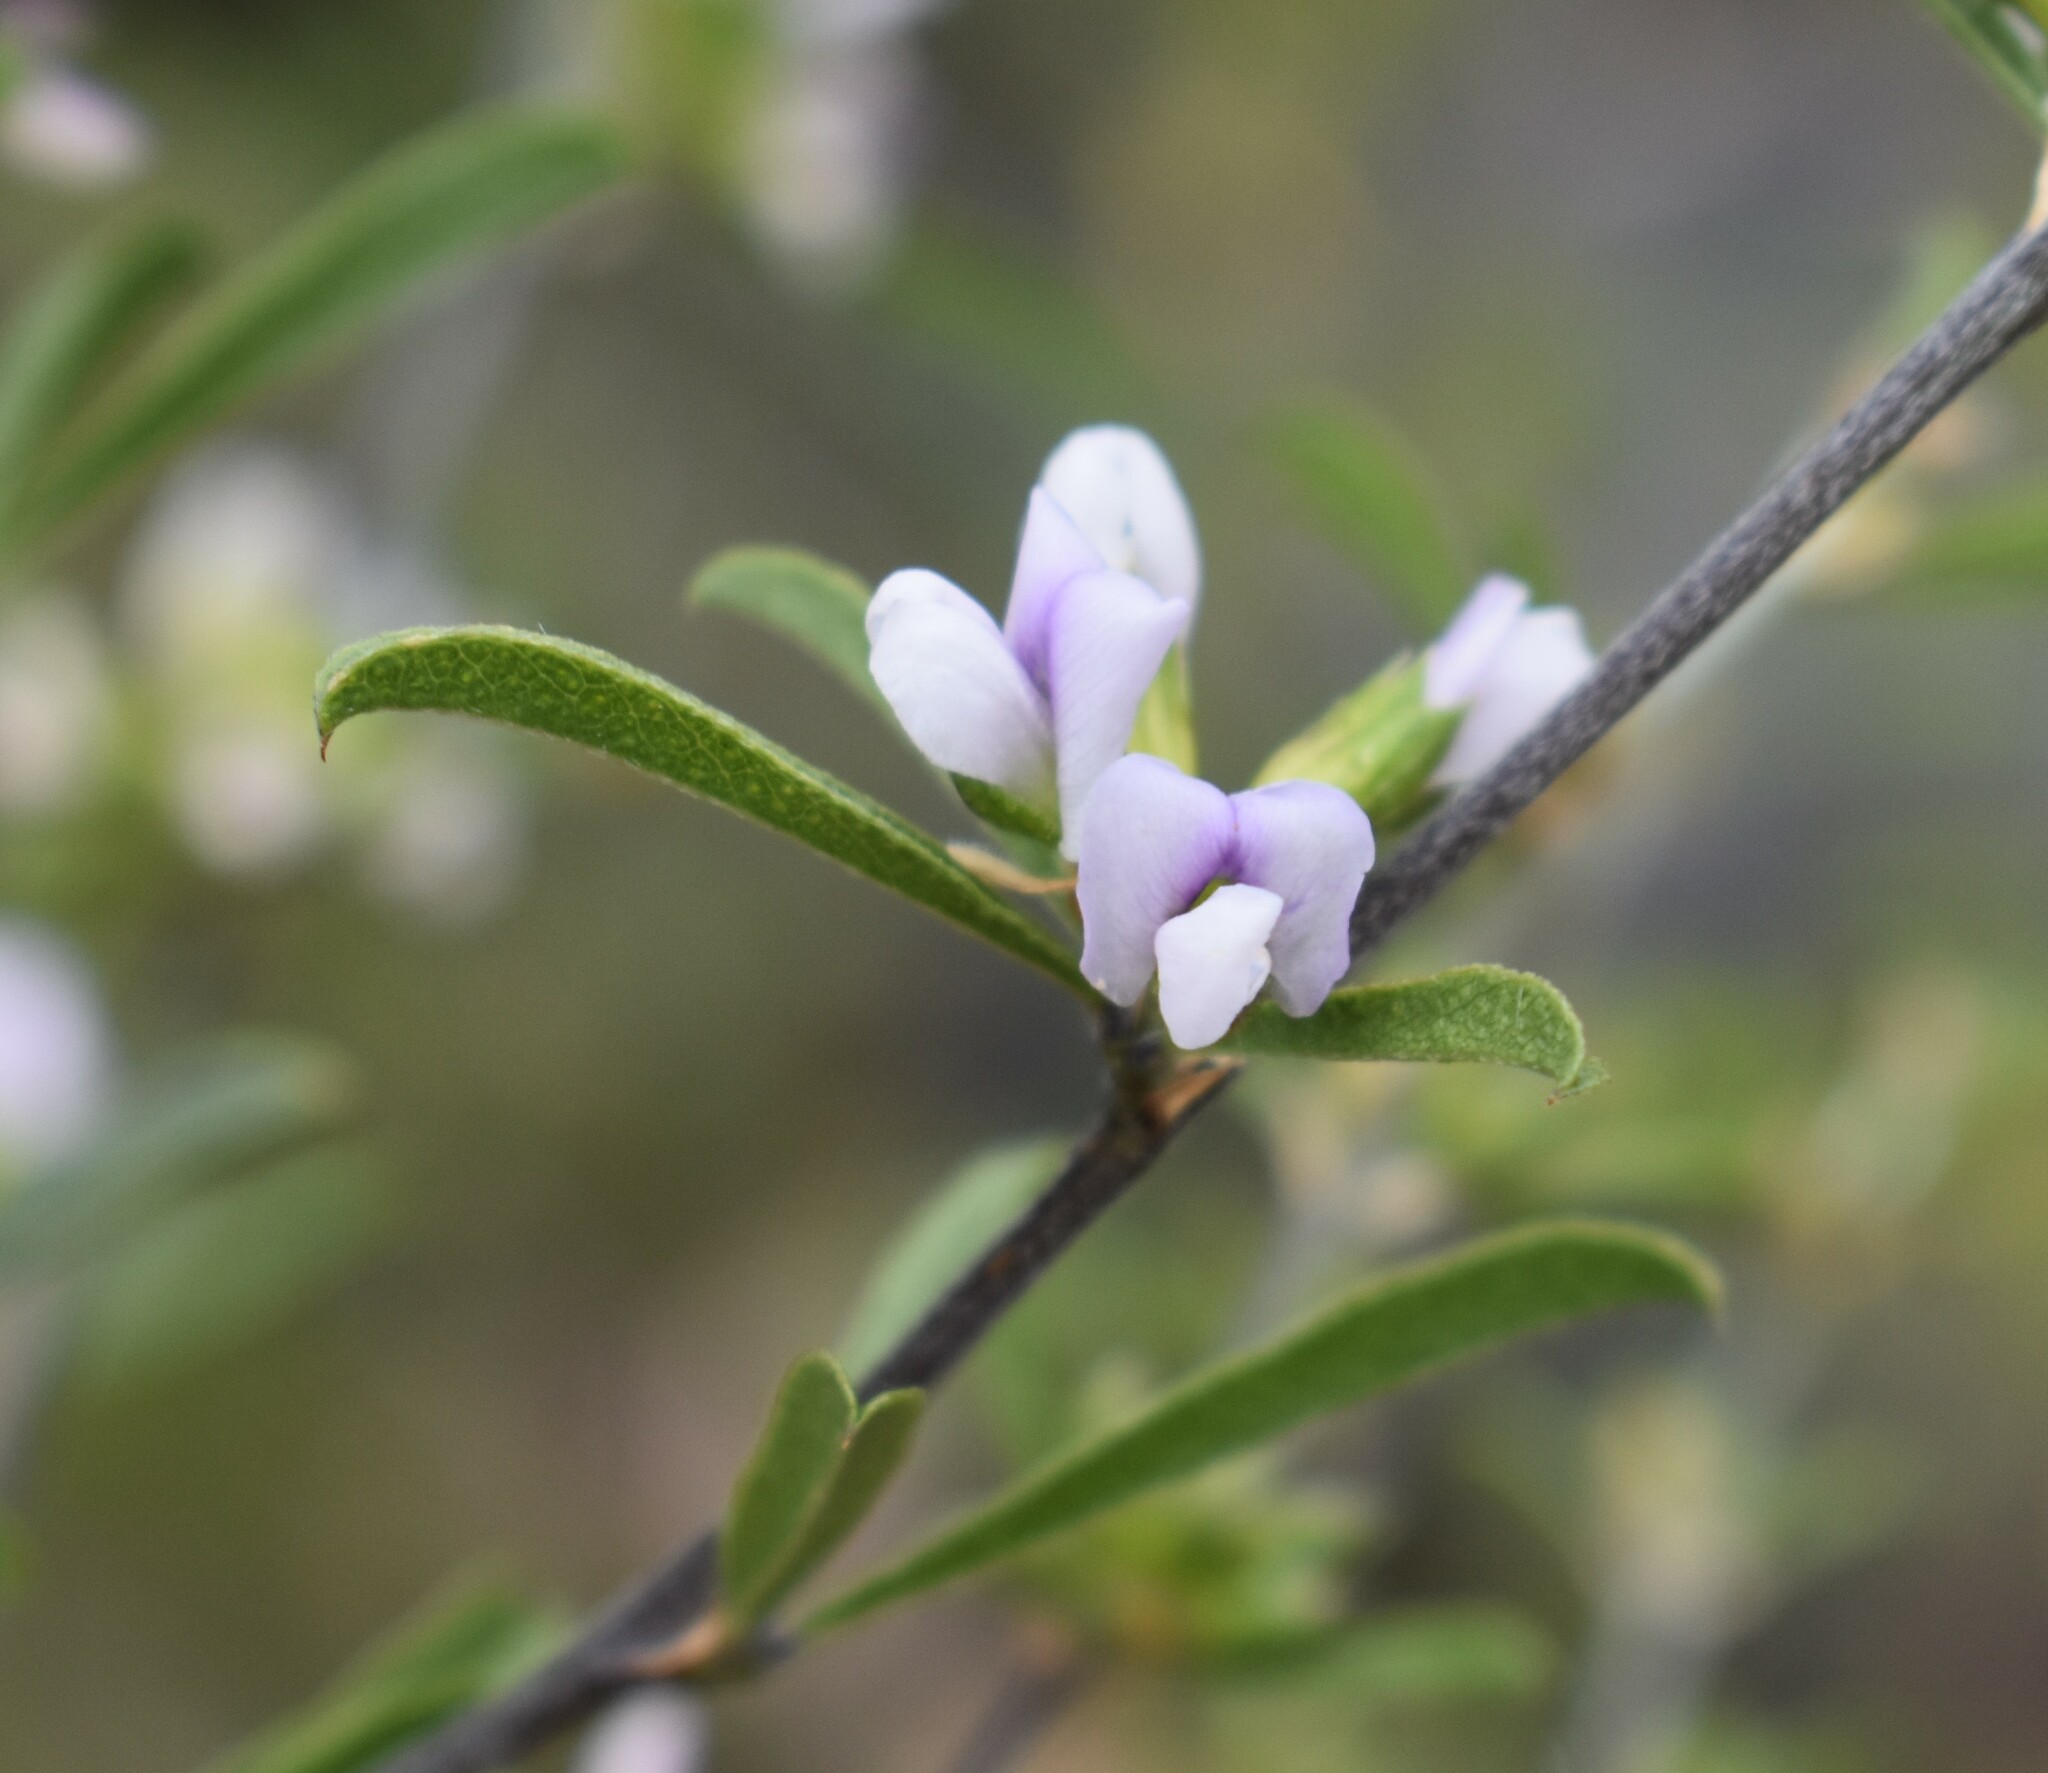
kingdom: Plantae
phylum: Tracheophyta
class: Magnoliopsida
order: Fabales
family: Fabaceae
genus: Psoralea
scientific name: Psoralea rubicunda
